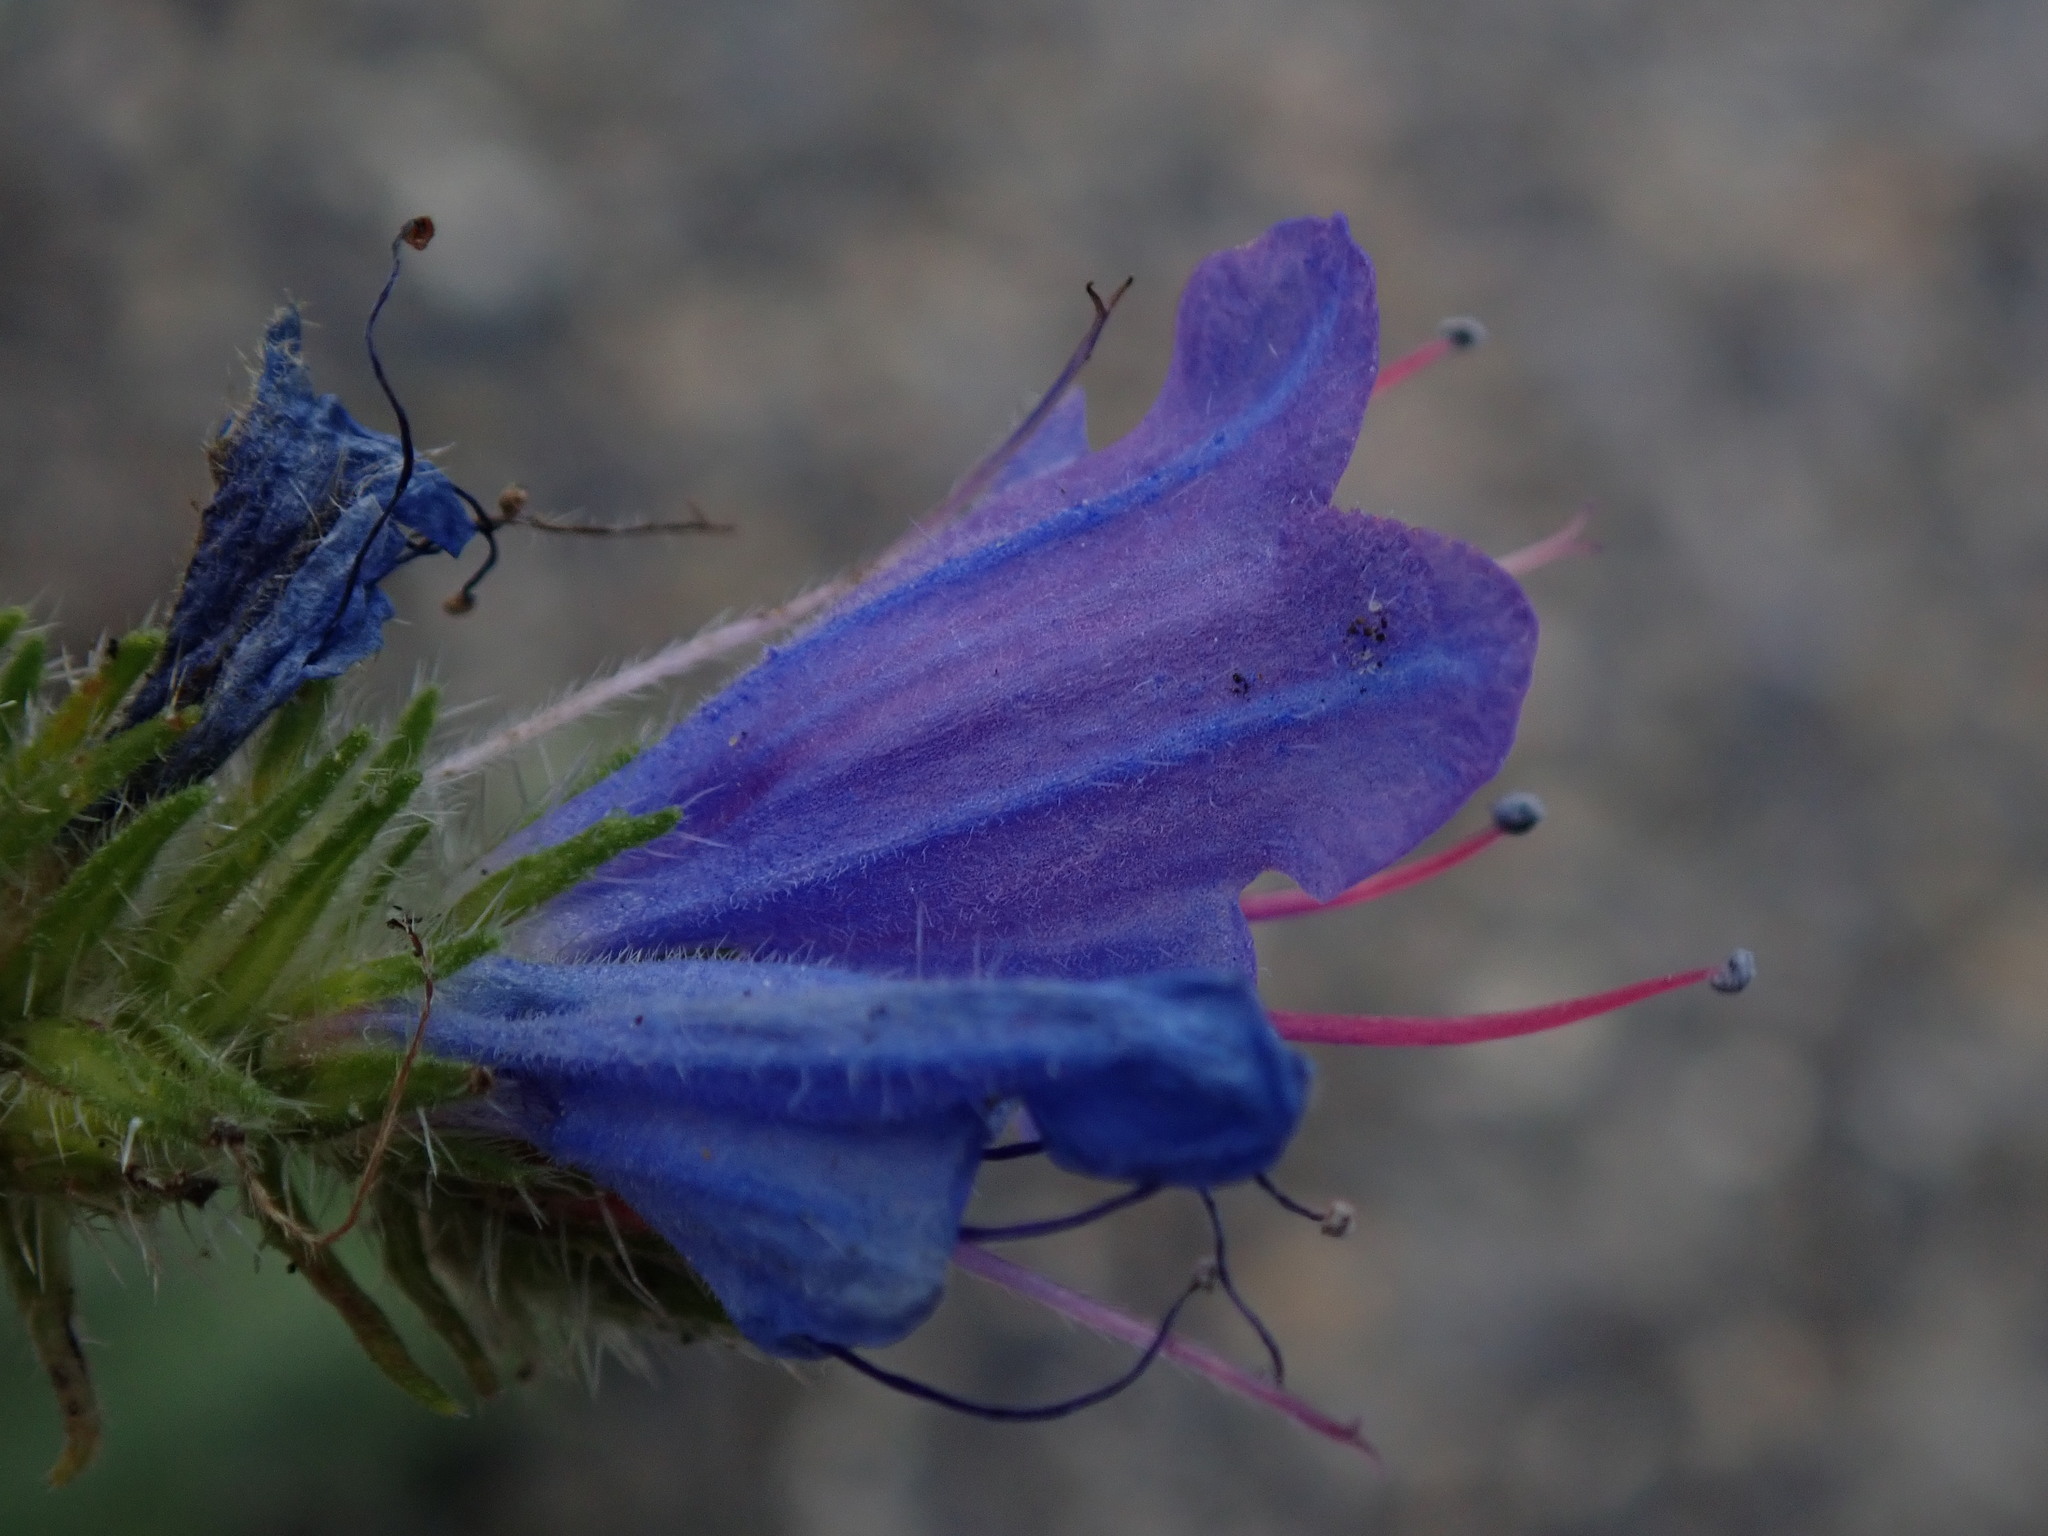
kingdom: Plantae
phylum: Tracheophyta
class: Magnoliopsida
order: Boraginales
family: Boraginaceae
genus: Echium
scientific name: Echium vulgare
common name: Common viper's bugloss
